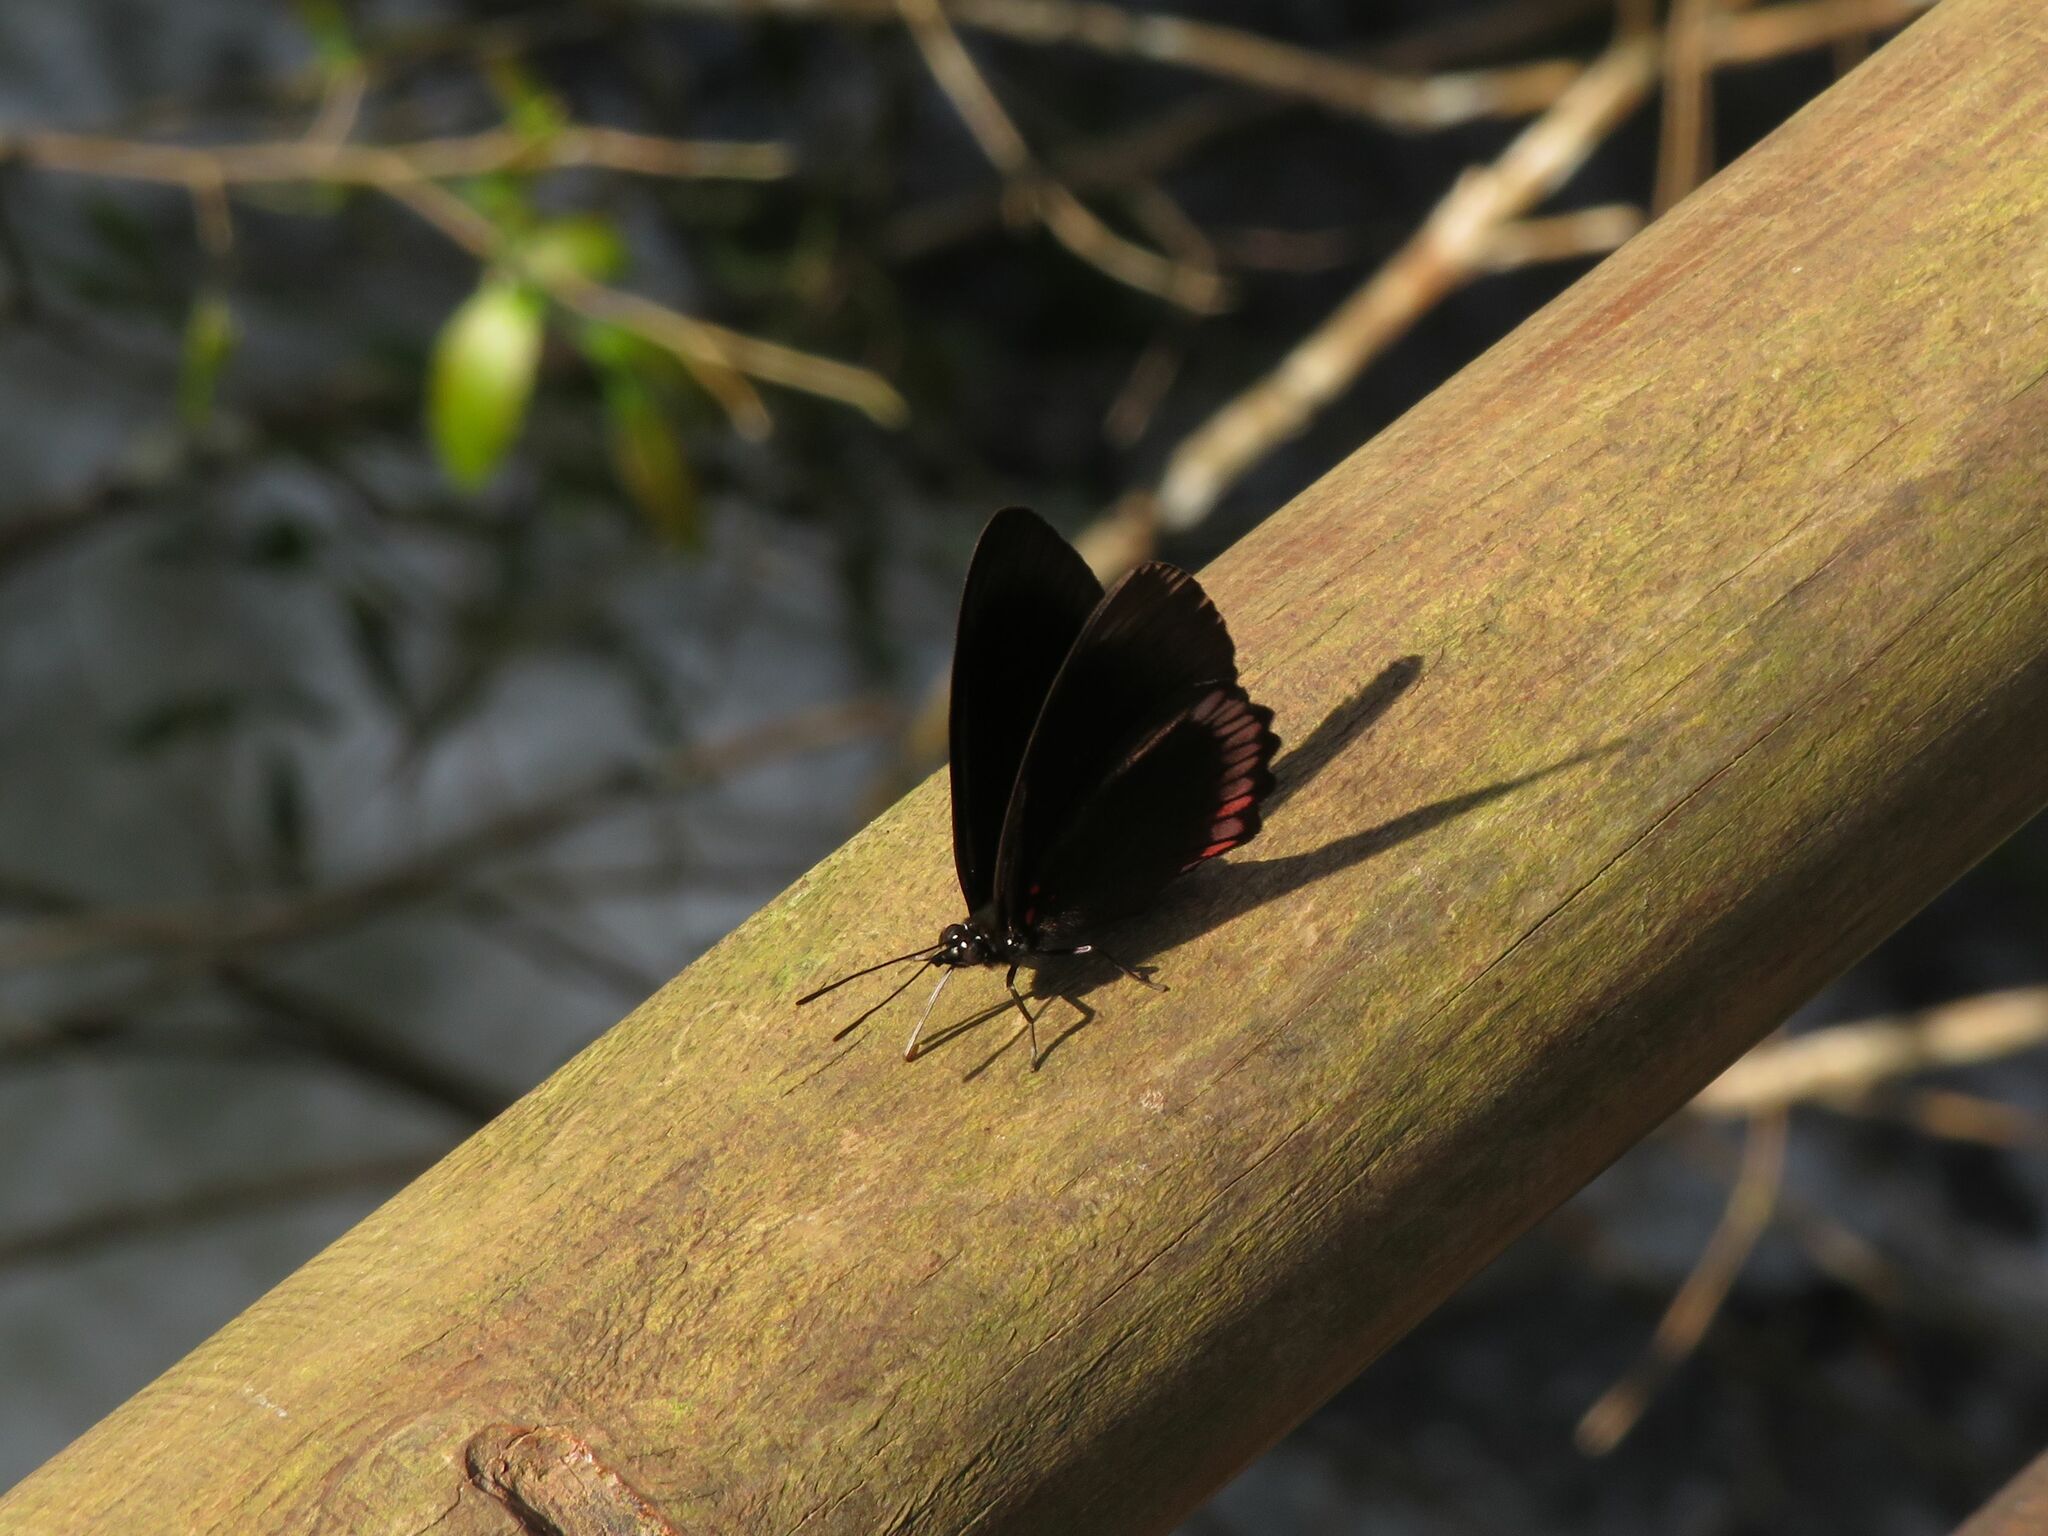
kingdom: Animalia
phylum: Arthropoda
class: Insecta
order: Lepidoptera
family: Sesiidae
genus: Sesia
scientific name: Sesia Biblis hyperia
